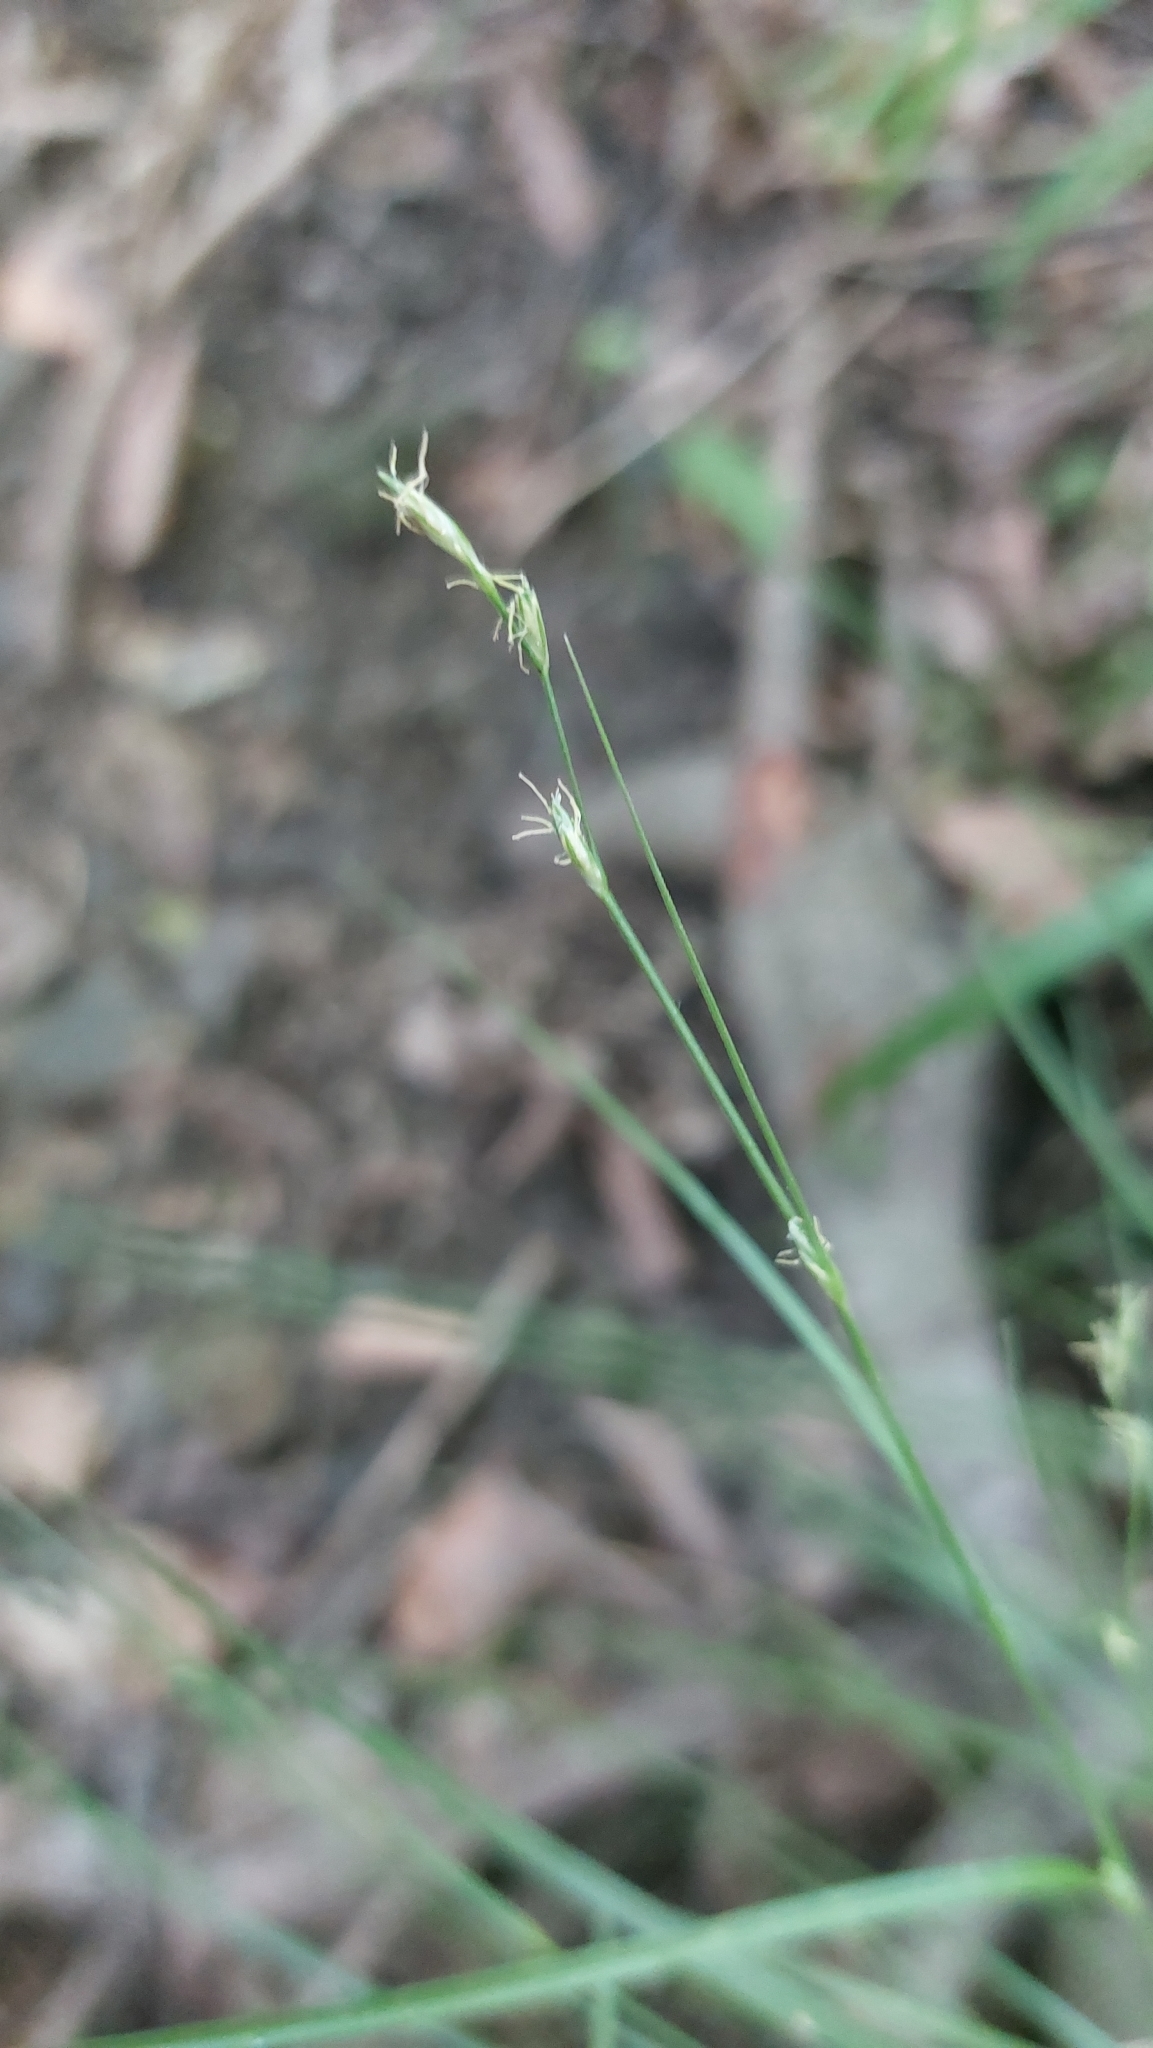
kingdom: Plantae
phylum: Tracheophyta
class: Liliopsida
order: Poales
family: Cyperaceae
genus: Carex
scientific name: Carex remota
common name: Remote sedge
